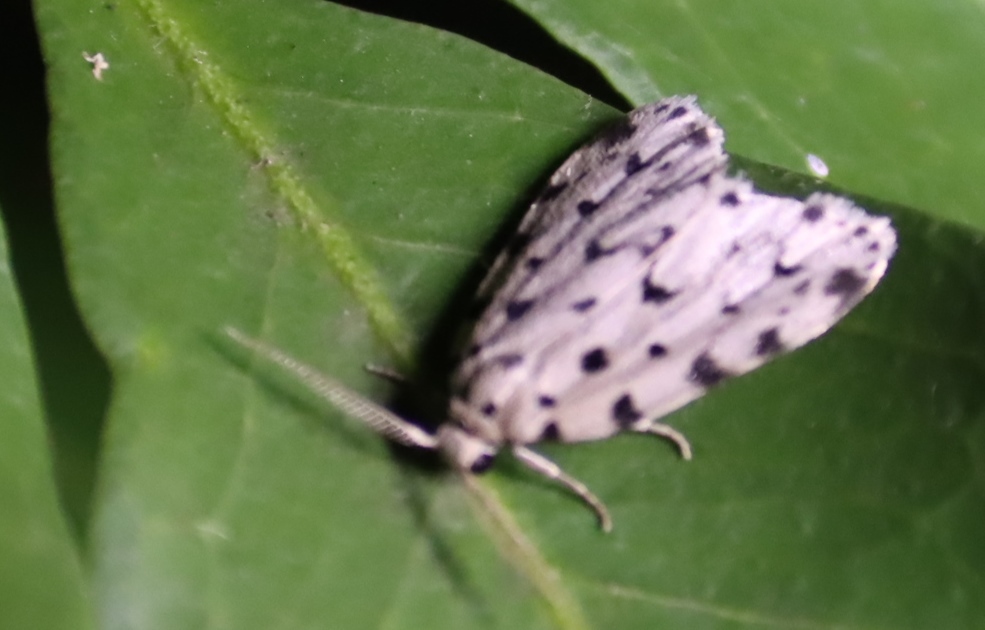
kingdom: Animalia
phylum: Arthropoda
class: Insecta
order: Lepidoptera
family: Erebidae
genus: Siccia
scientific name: Siccia caffra
